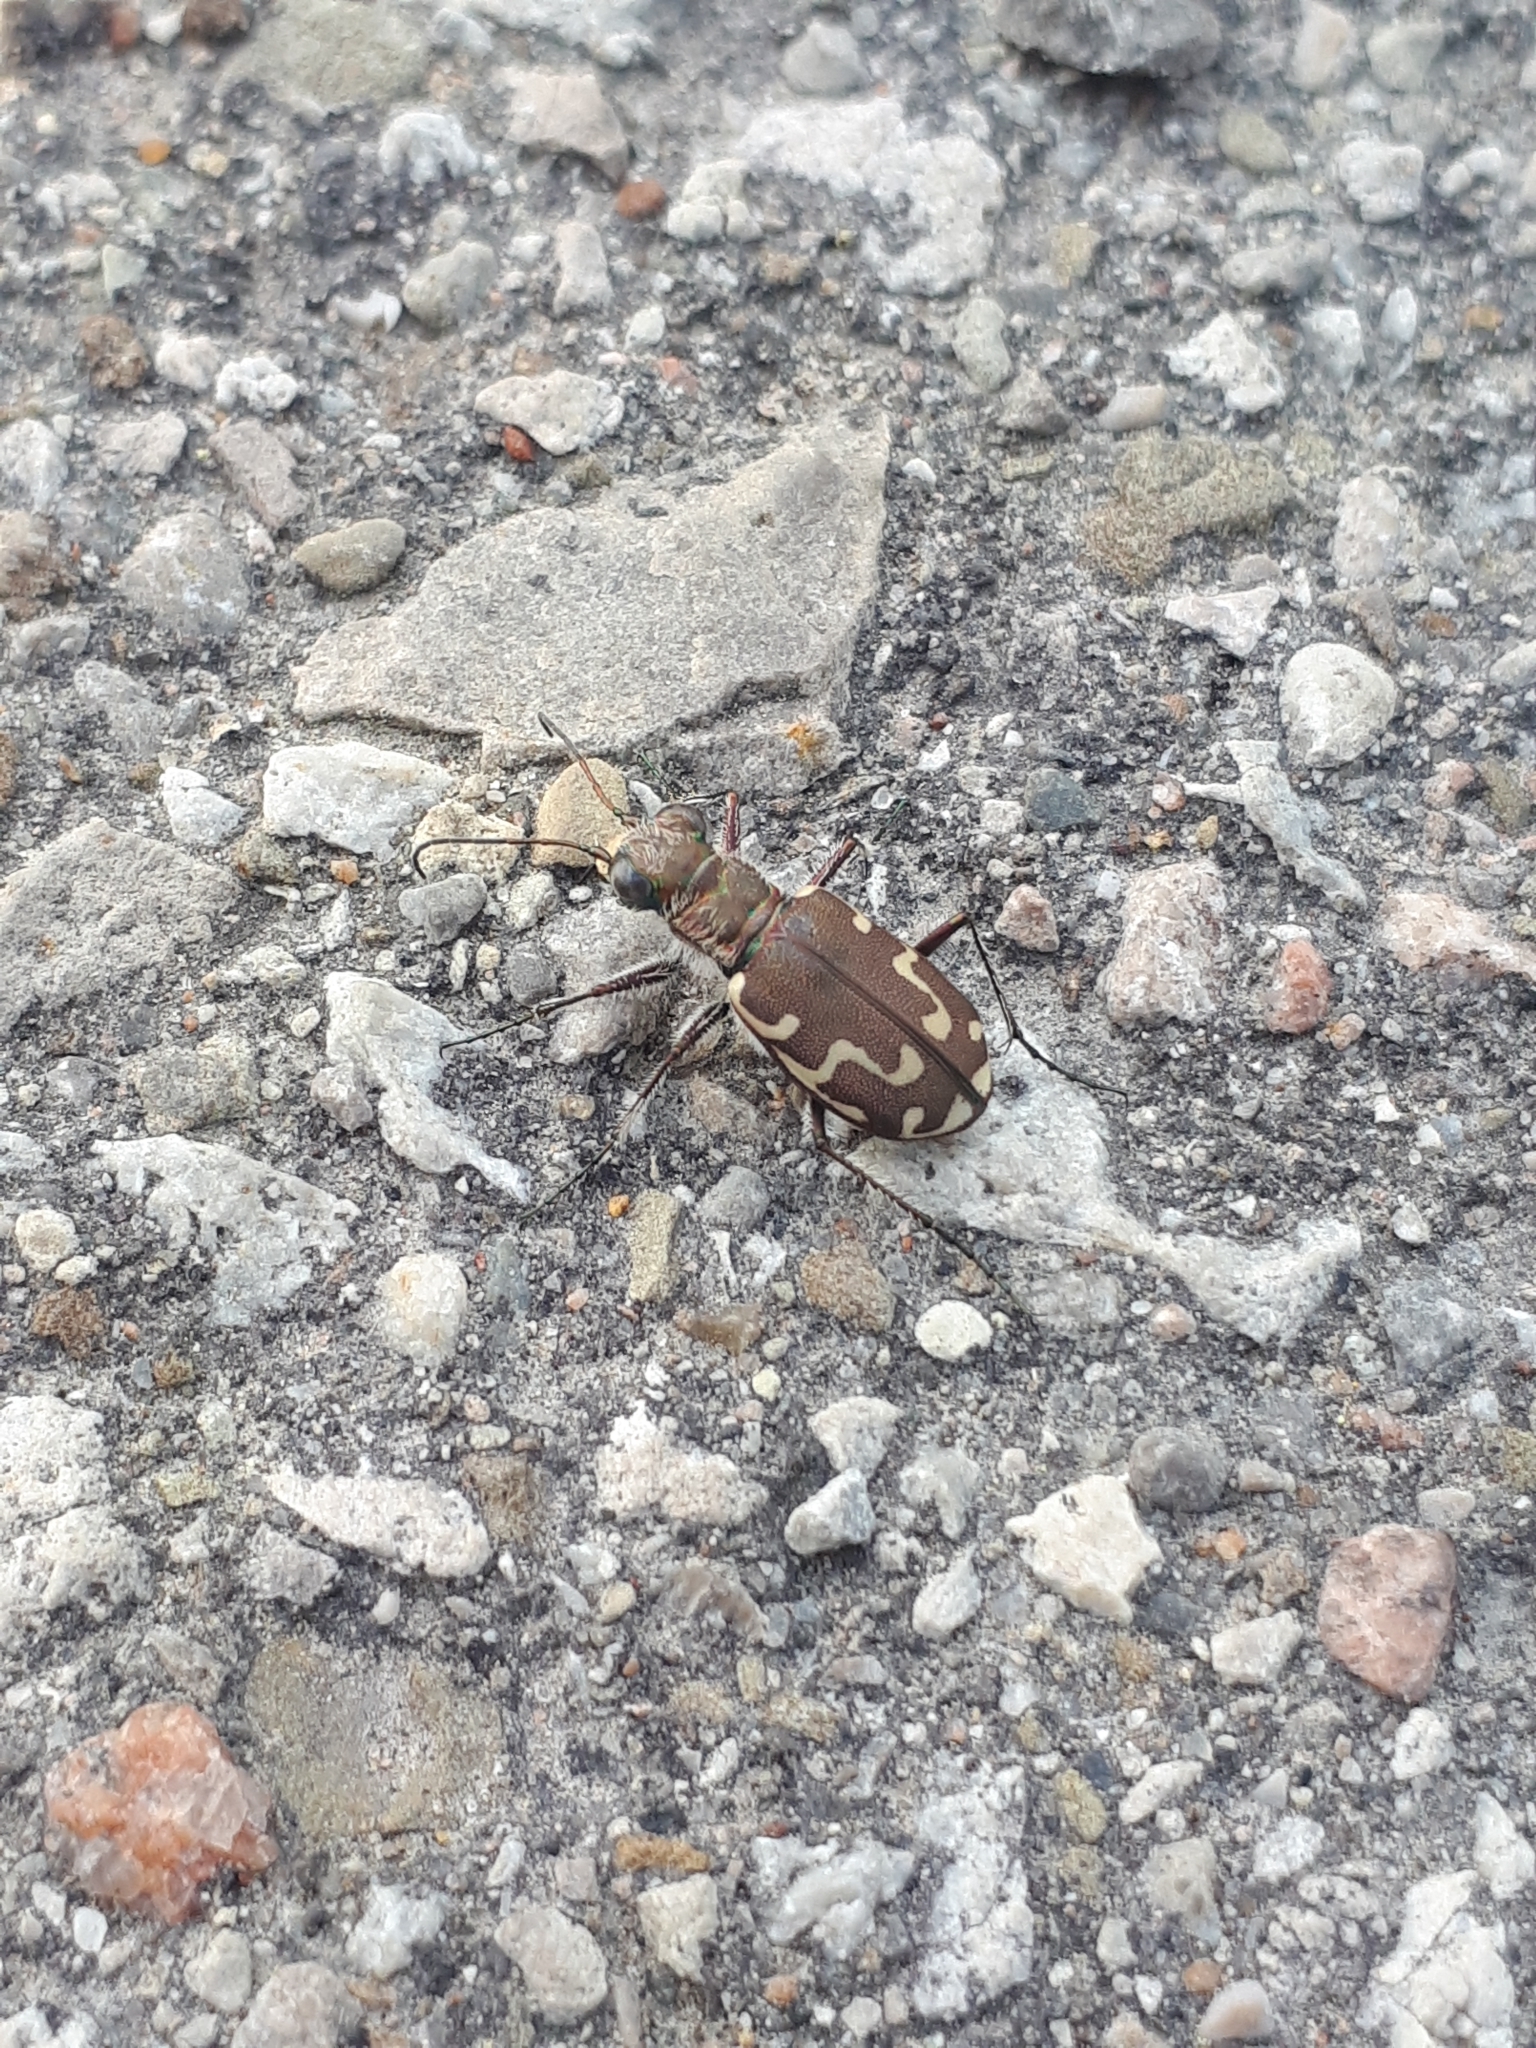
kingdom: Animalia
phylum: Arthropoda
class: Insecta
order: Coleoptera
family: Carabidae
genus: Cicindela
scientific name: Cicindela repanda
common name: Bronzed tiger beetle
